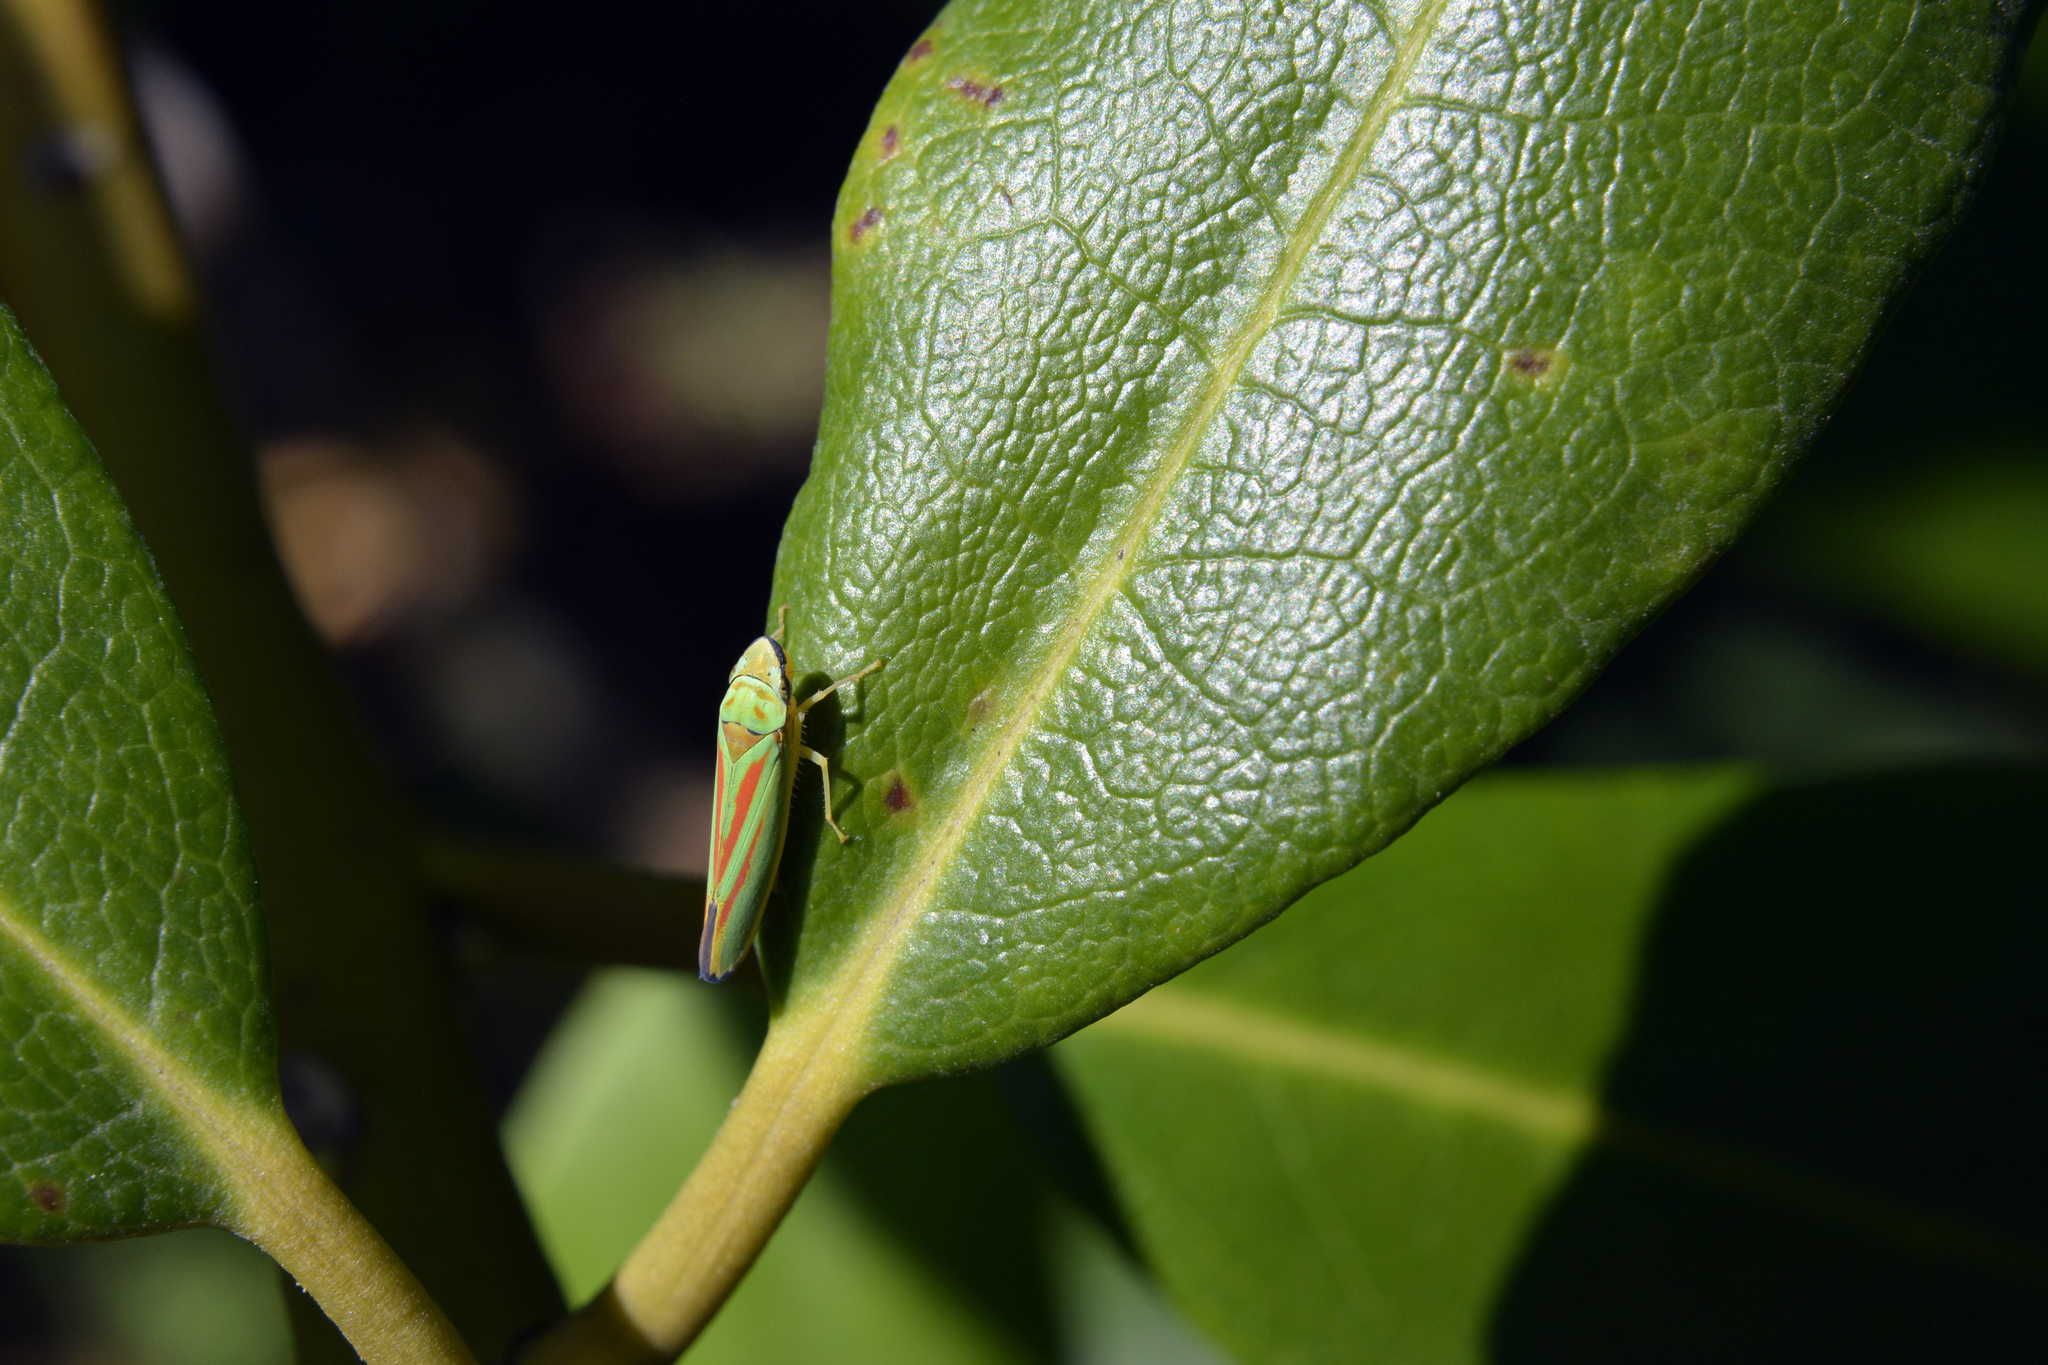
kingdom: Animalia
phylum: Arthropoda
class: Insecta
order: Hemiptera
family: Cicadellidae
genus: Graphocephala
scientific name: Graphocephala fennahi
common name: Rhododendron leafhopper
